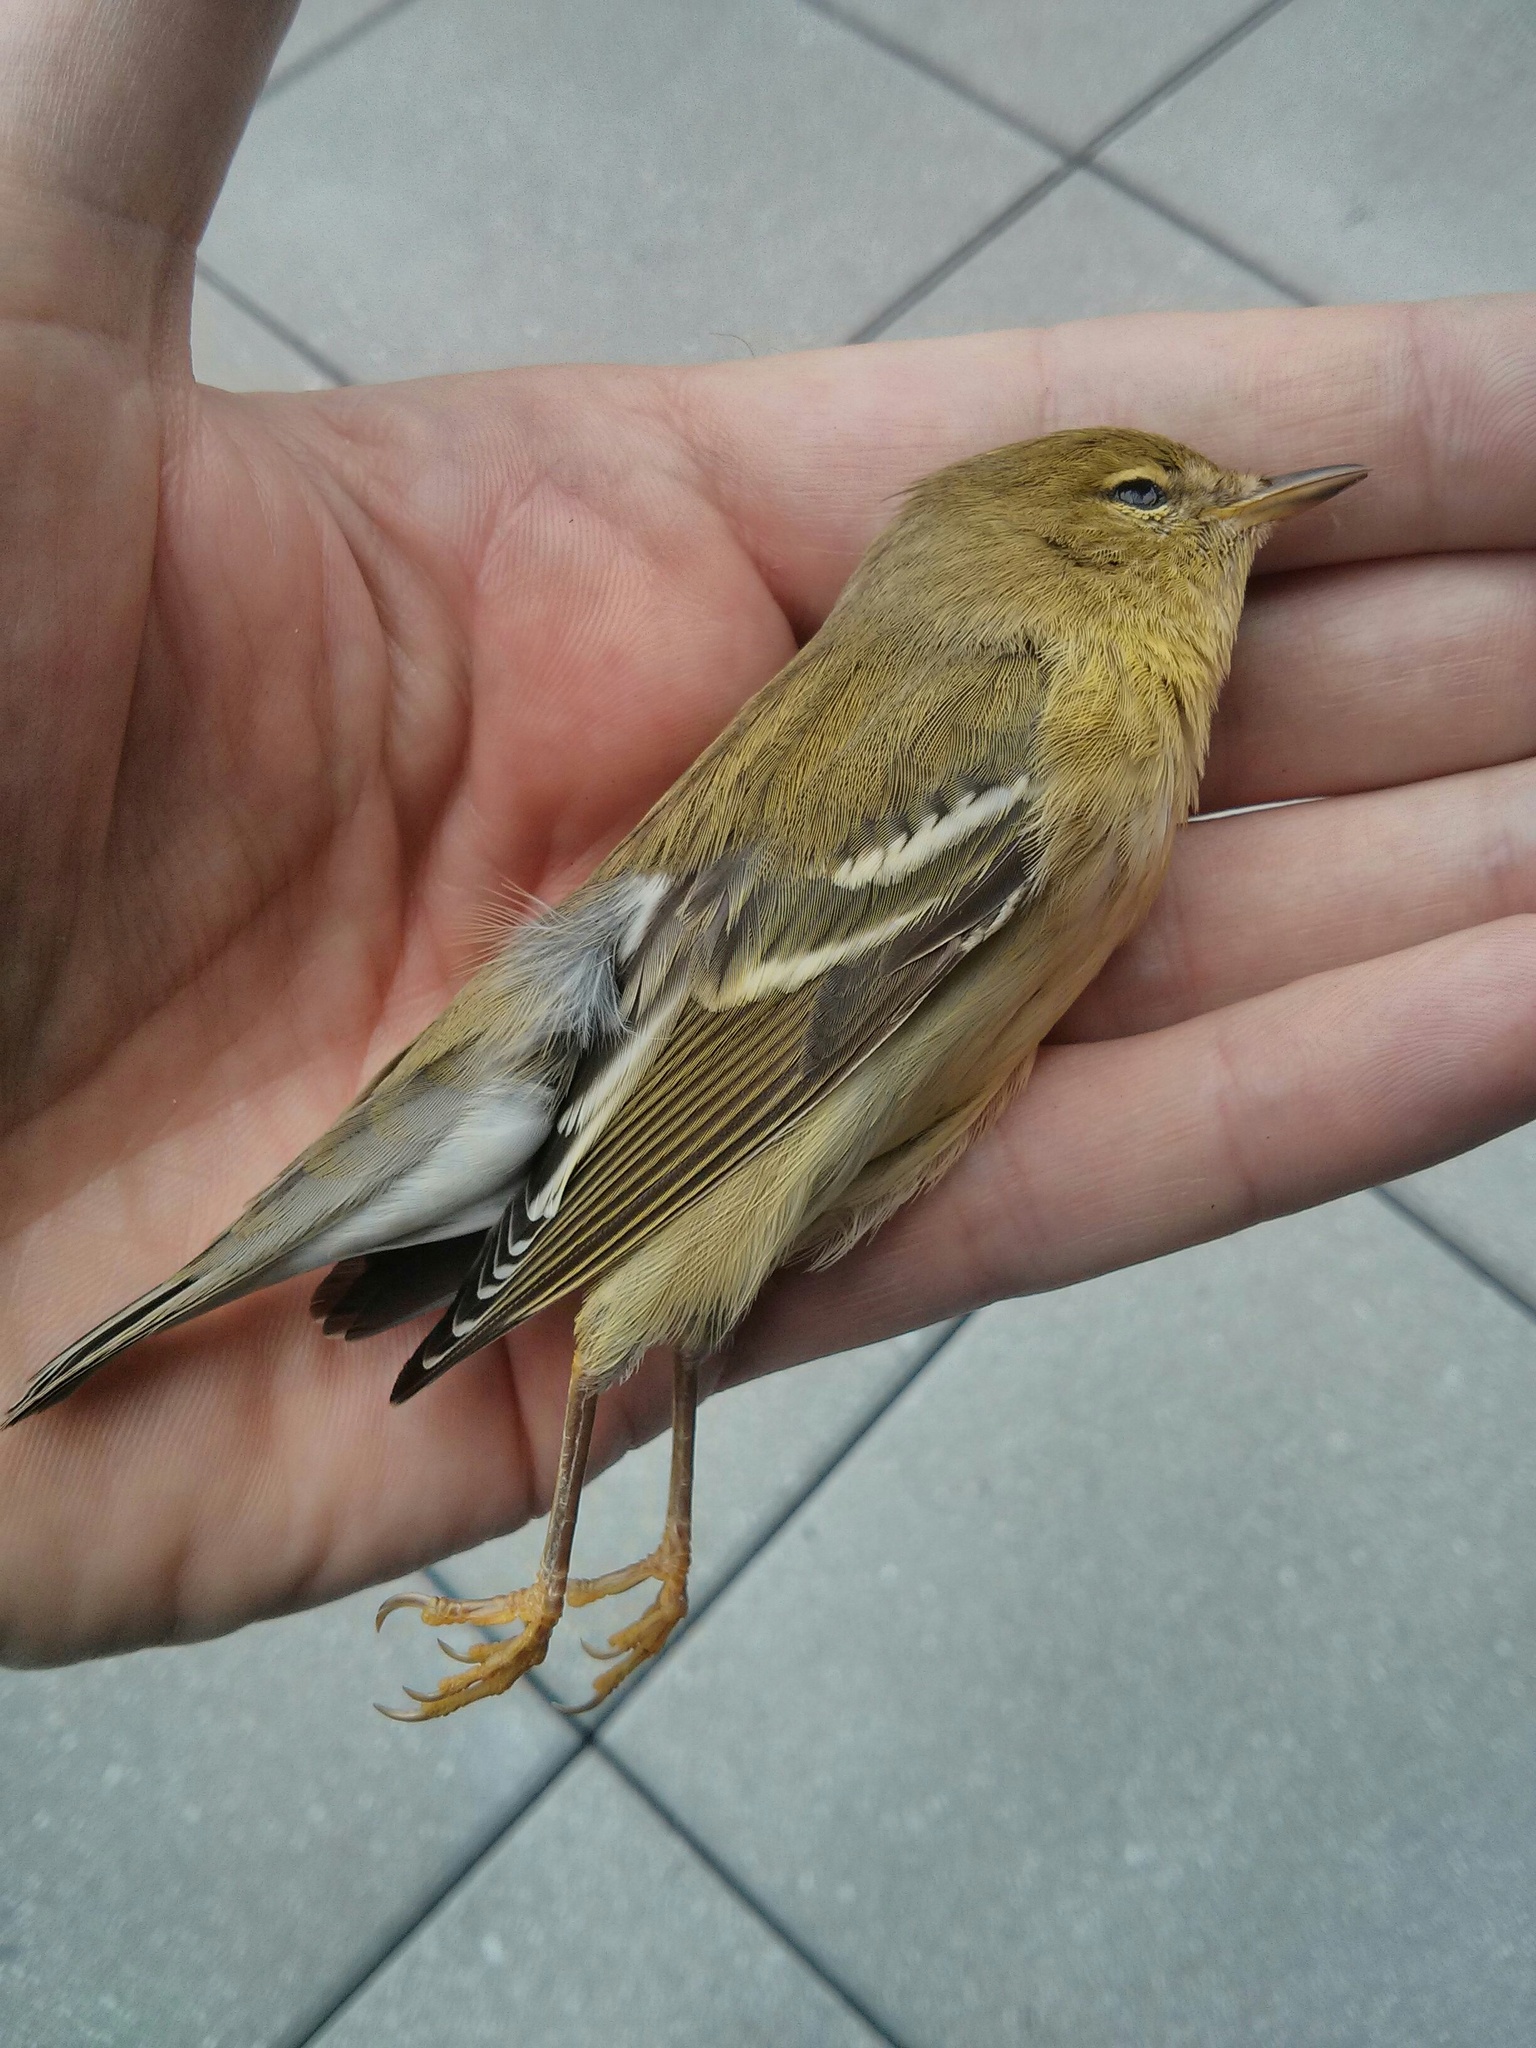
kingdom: Animalia
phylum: Chordata
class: Aves
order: Passeriformes
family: Parulidae
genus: Setophaga
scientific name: Setophaga striata
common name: Blackpoll warbler
